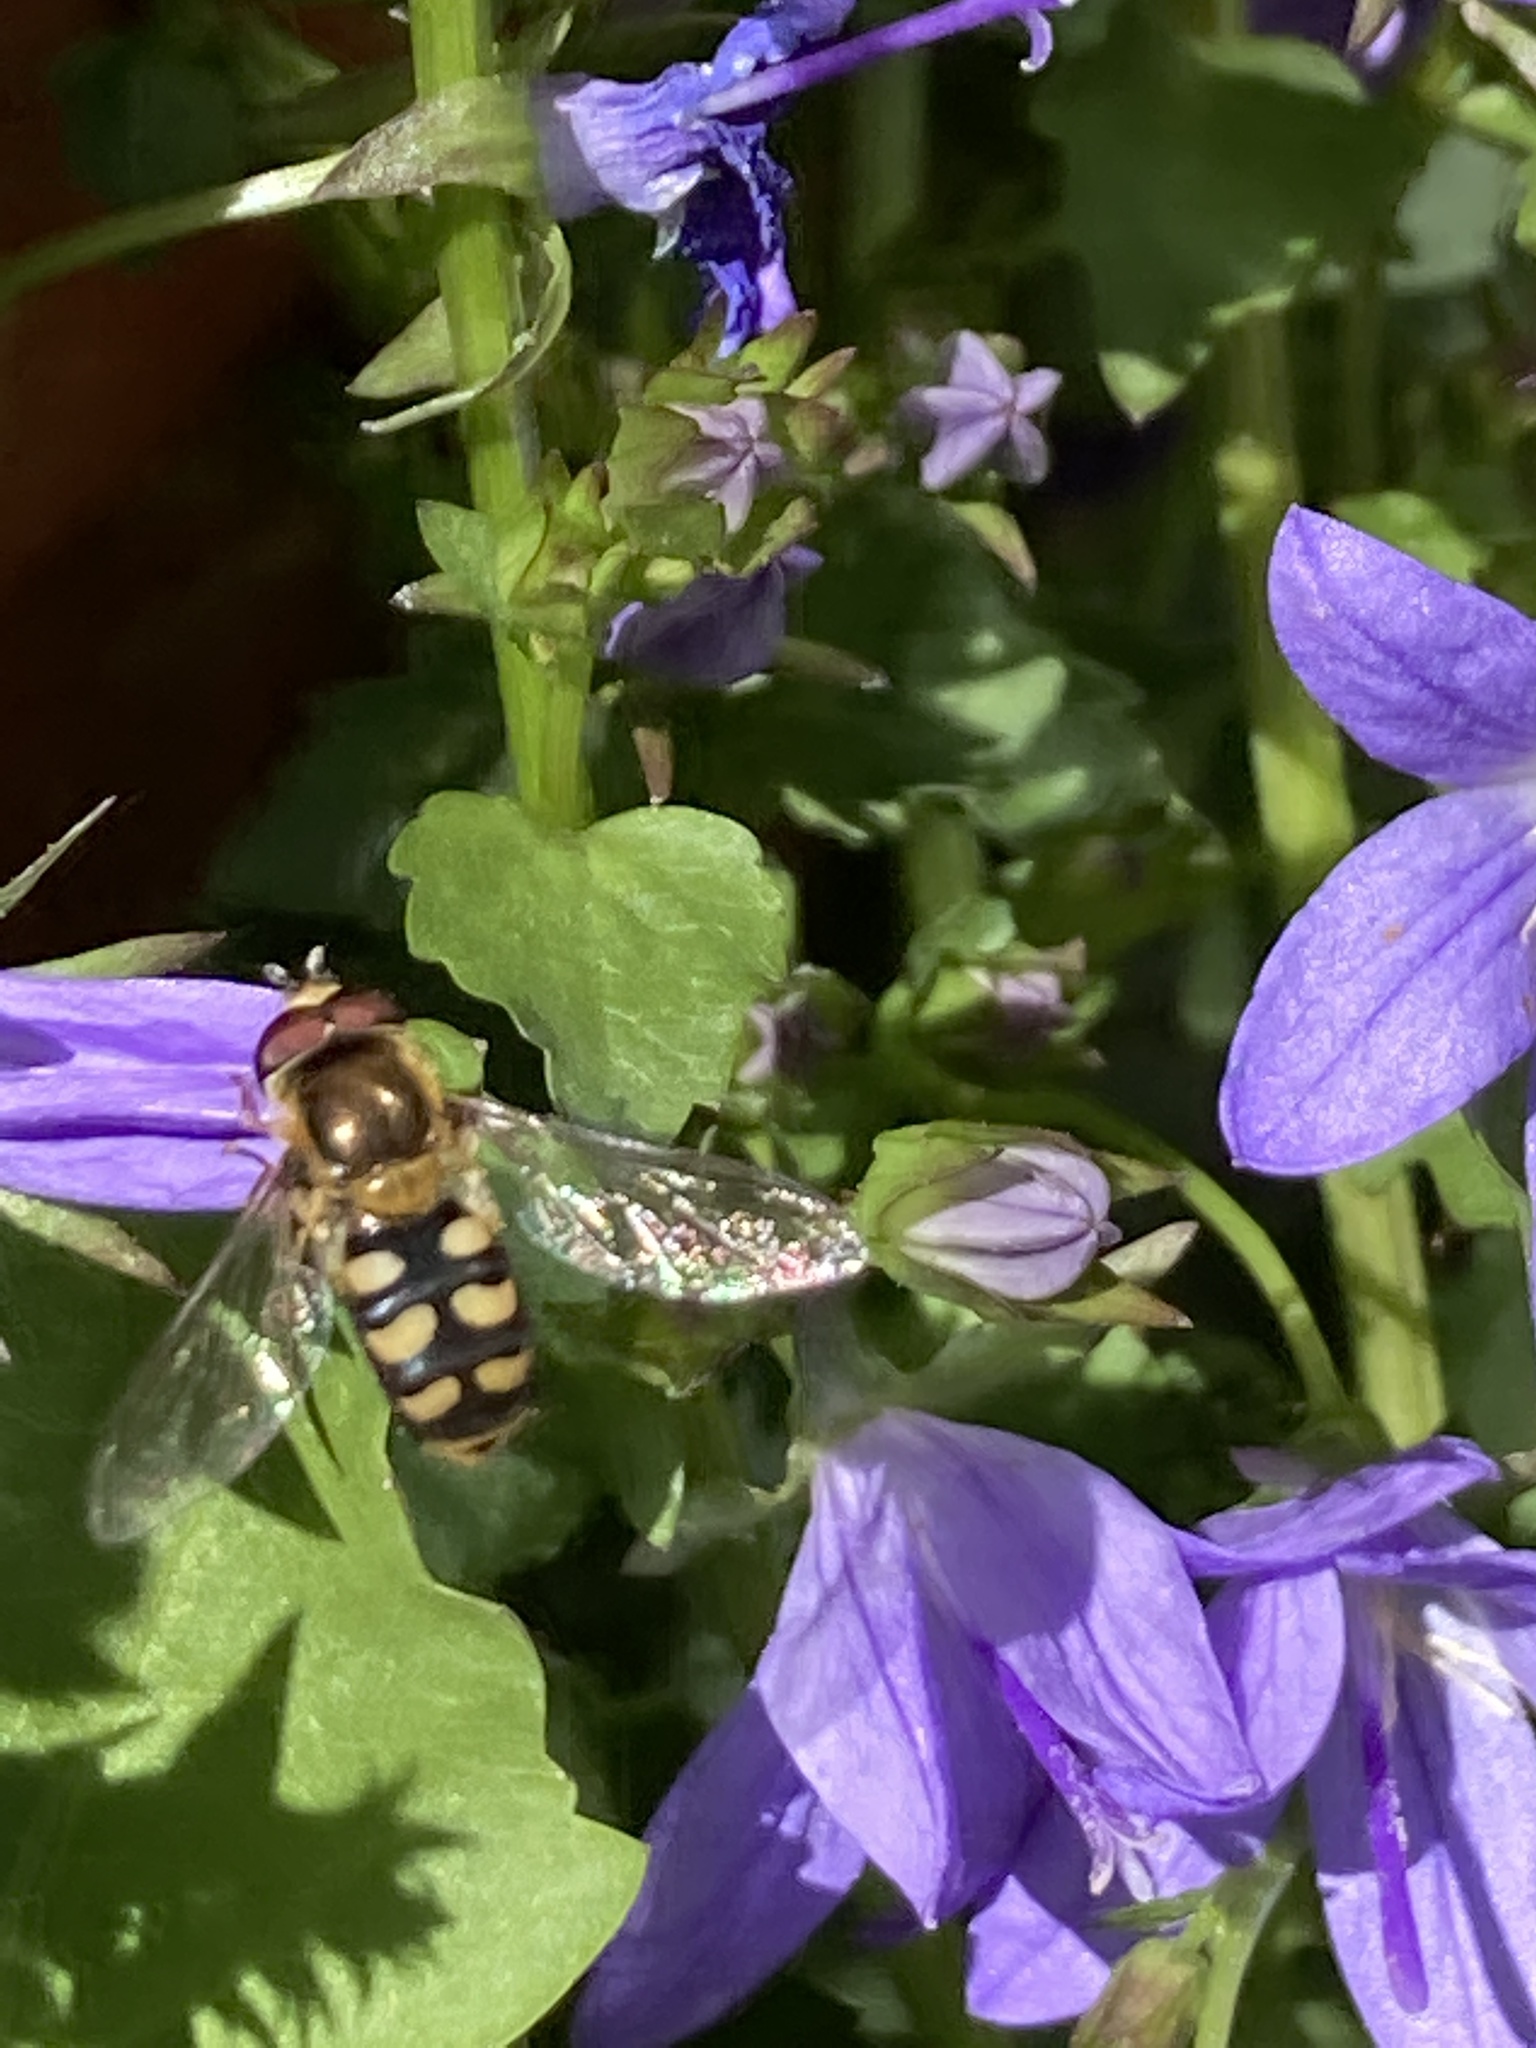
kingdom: Animalia
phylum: Arthropoda
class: Insecta
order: Diptera
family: Syrphidae
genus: Eupeodes
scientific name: Eupeodes
